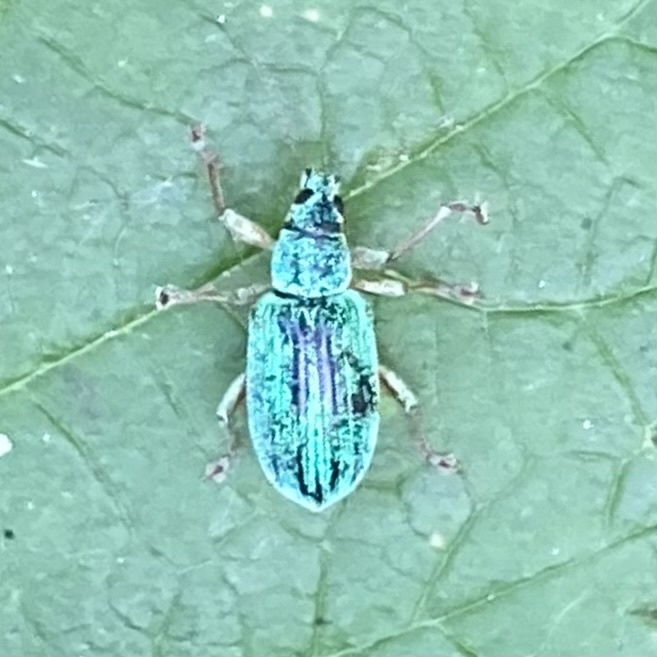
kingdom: Animalia
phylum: Arthropoda
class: Insecta
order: Coleoptera
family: Curculionidae
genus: Polydrusus
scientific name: Polydrusus formosus
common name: Weevil
